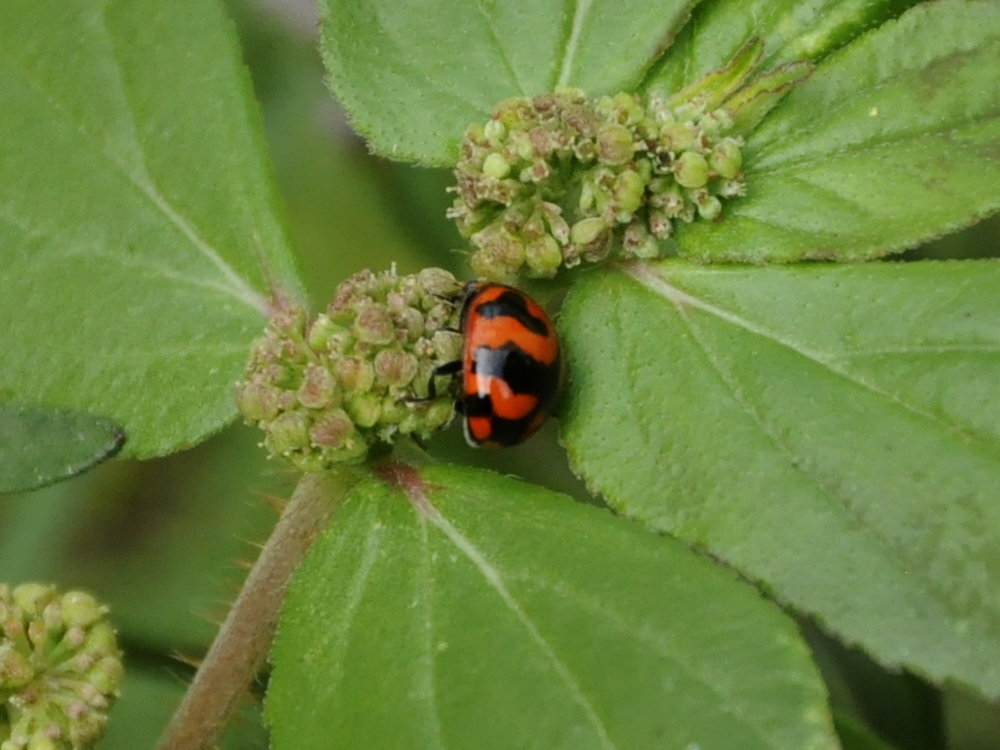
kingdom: Animalia
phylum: Arthropoda
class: Insecta
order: Coleoptera
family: Coccinellidae
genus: Coccinella
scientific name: Coccinella transversalis
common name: Transverse lady beetle
